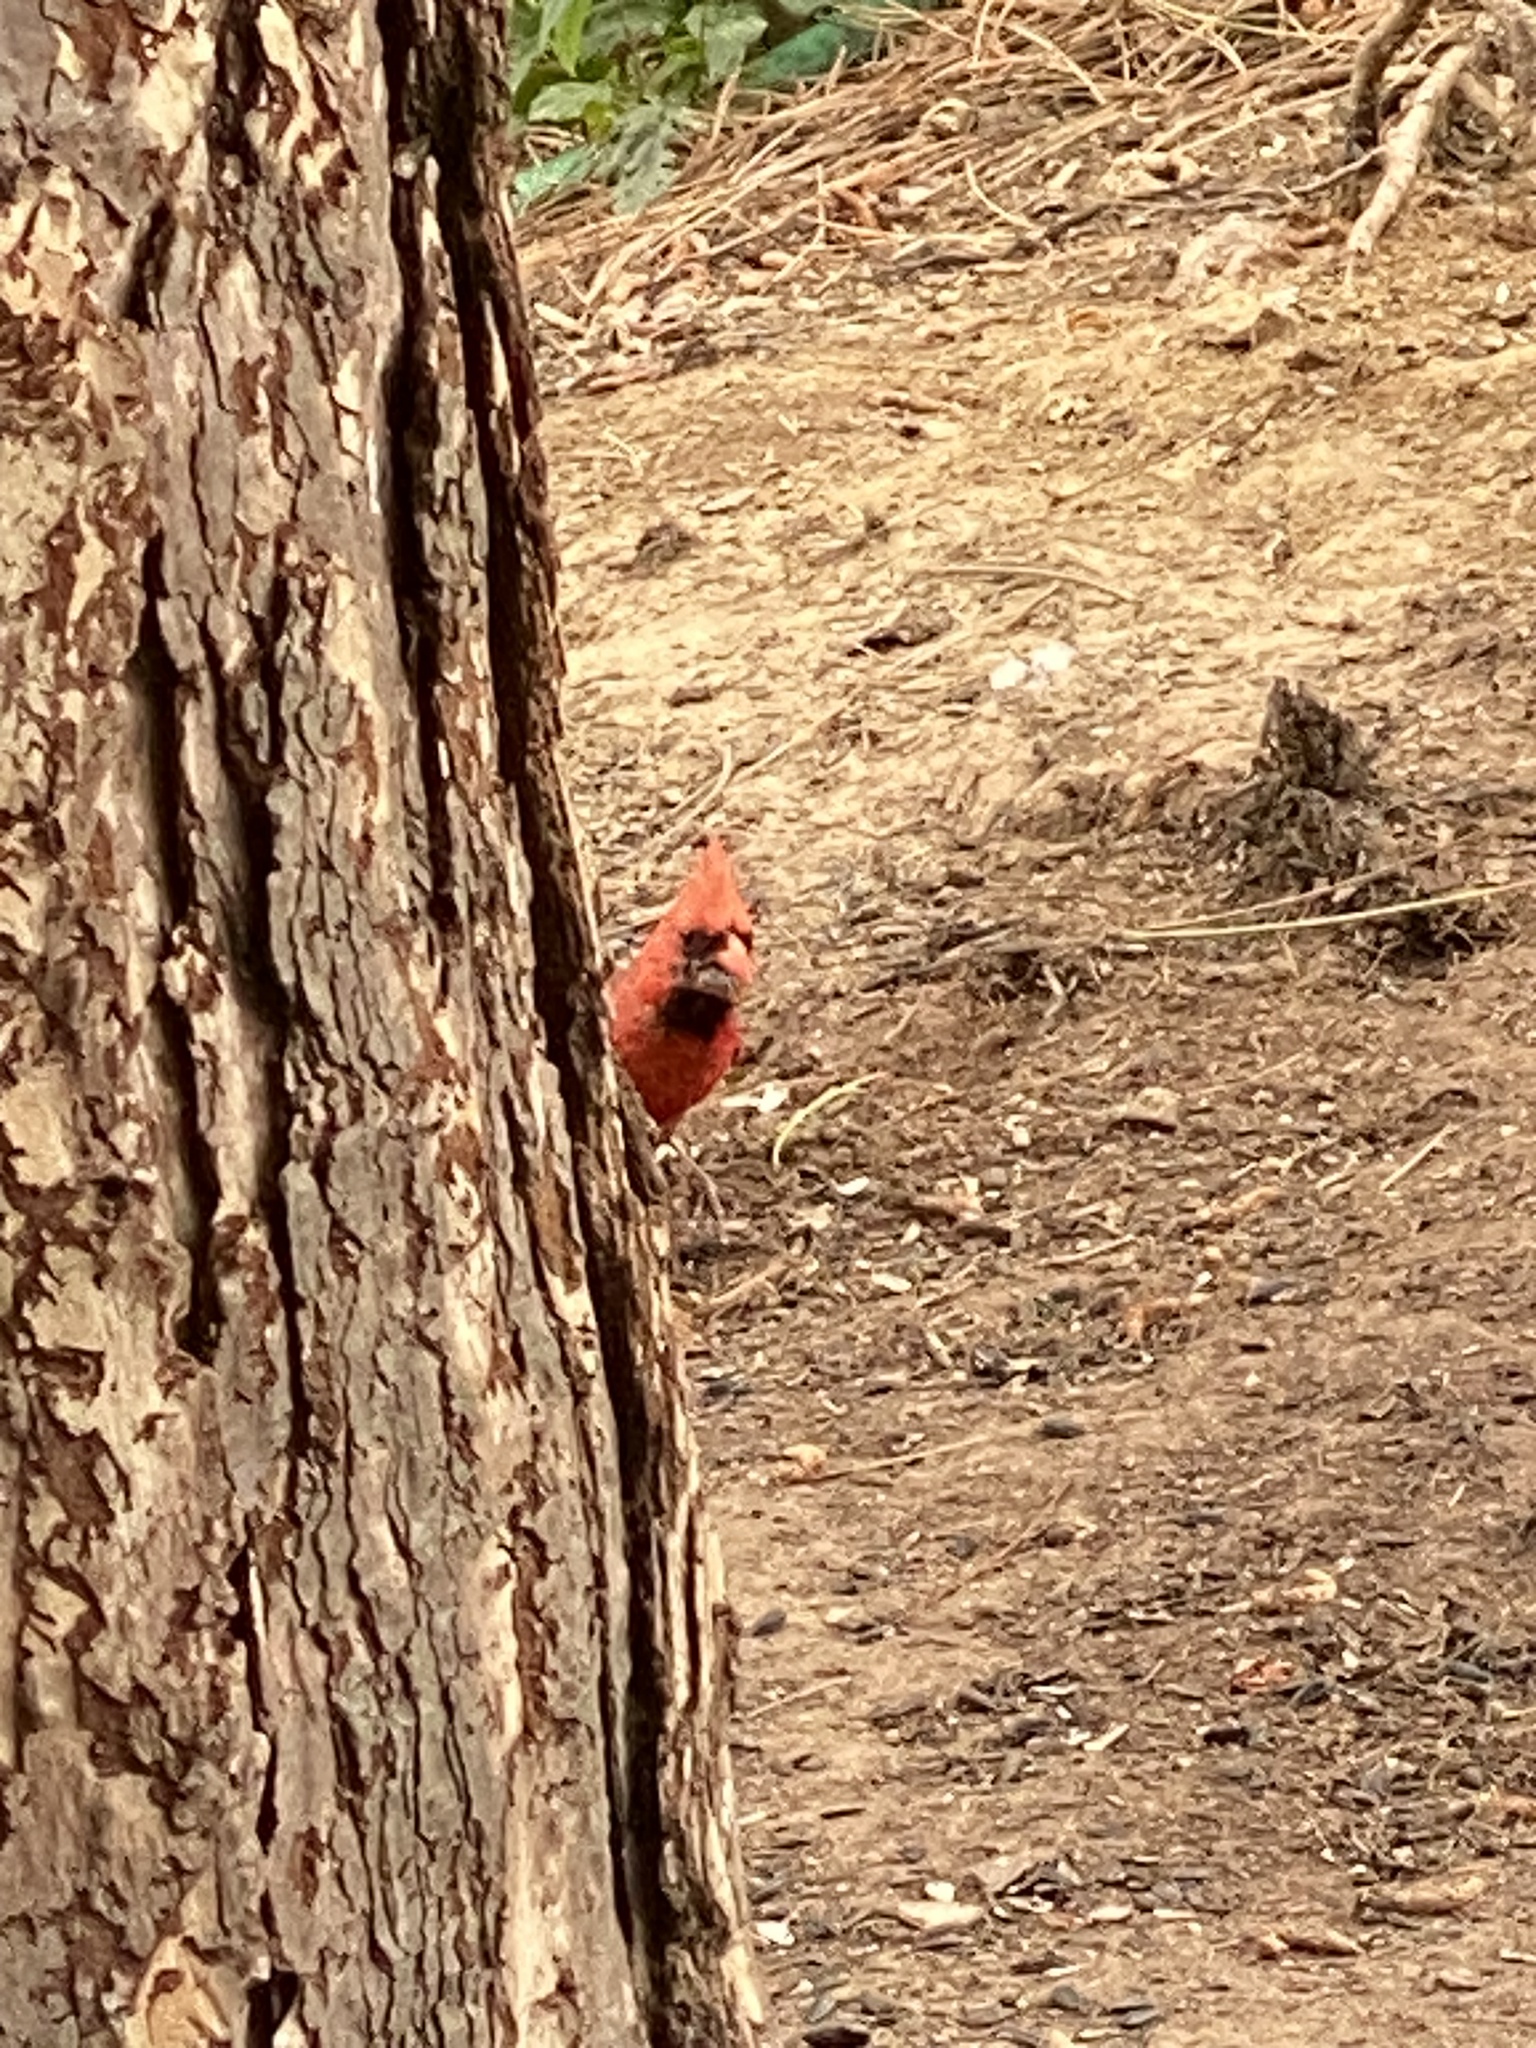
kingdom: Animalia
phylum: Chordata
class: Aves
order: Passeriformes
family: Cardinalidae
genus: Cardinalis
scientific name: Cardinalis cardinalis
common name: Northern cardinal
